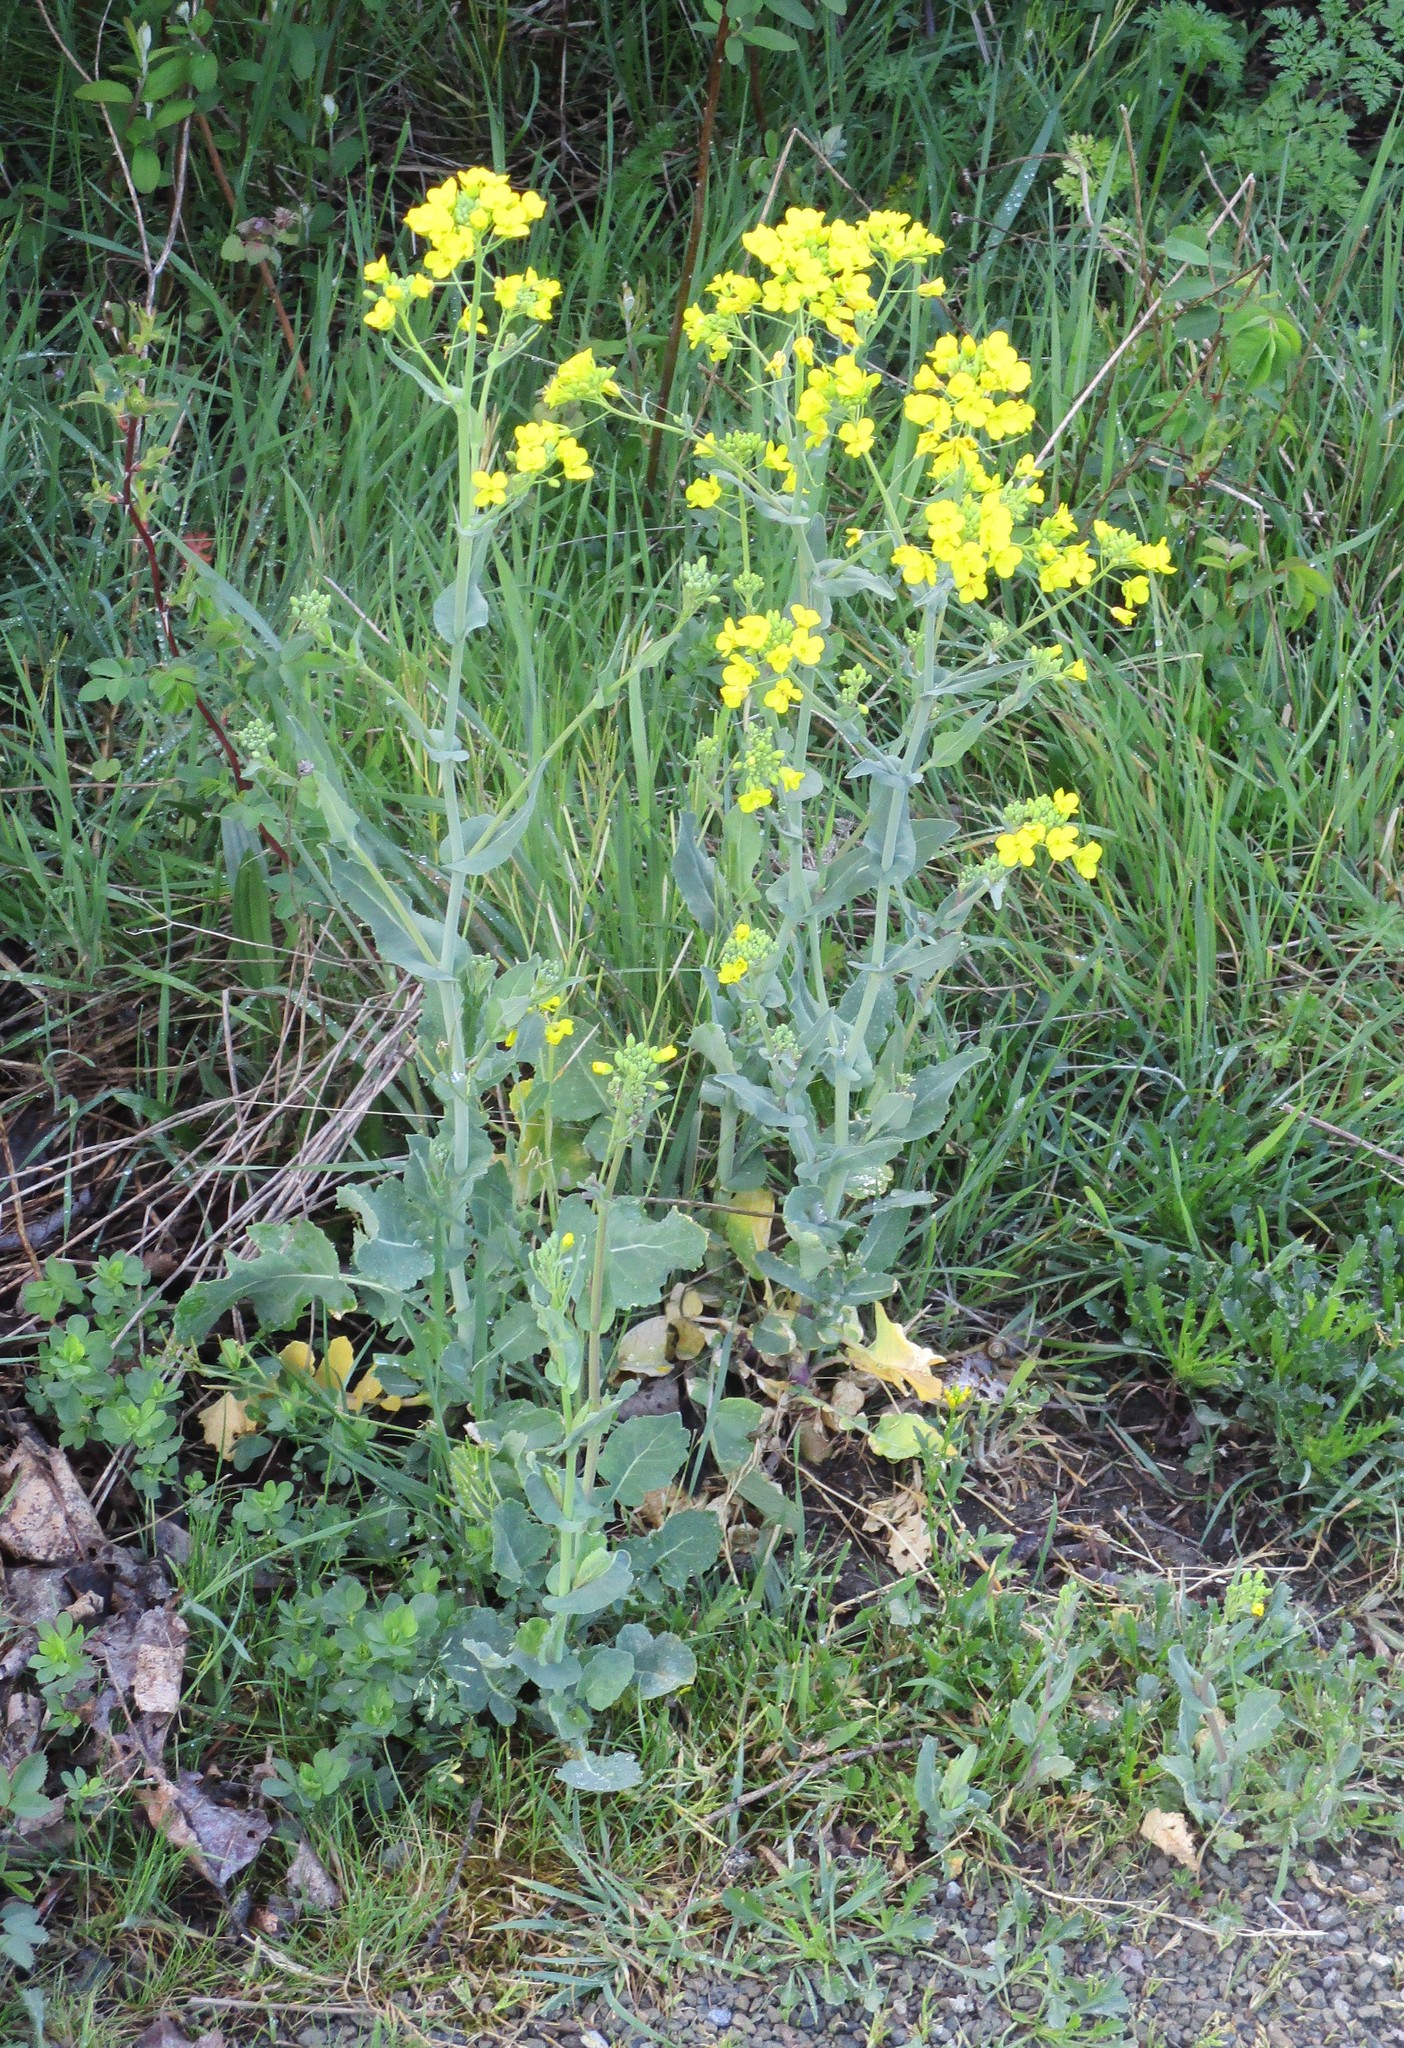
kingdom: Plantae
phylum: Tracheophyta
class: Magnoliopsida
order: Brassicales
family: Brassicaceae
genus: Brassica
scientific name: Brassica rapa
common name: Field mustard
